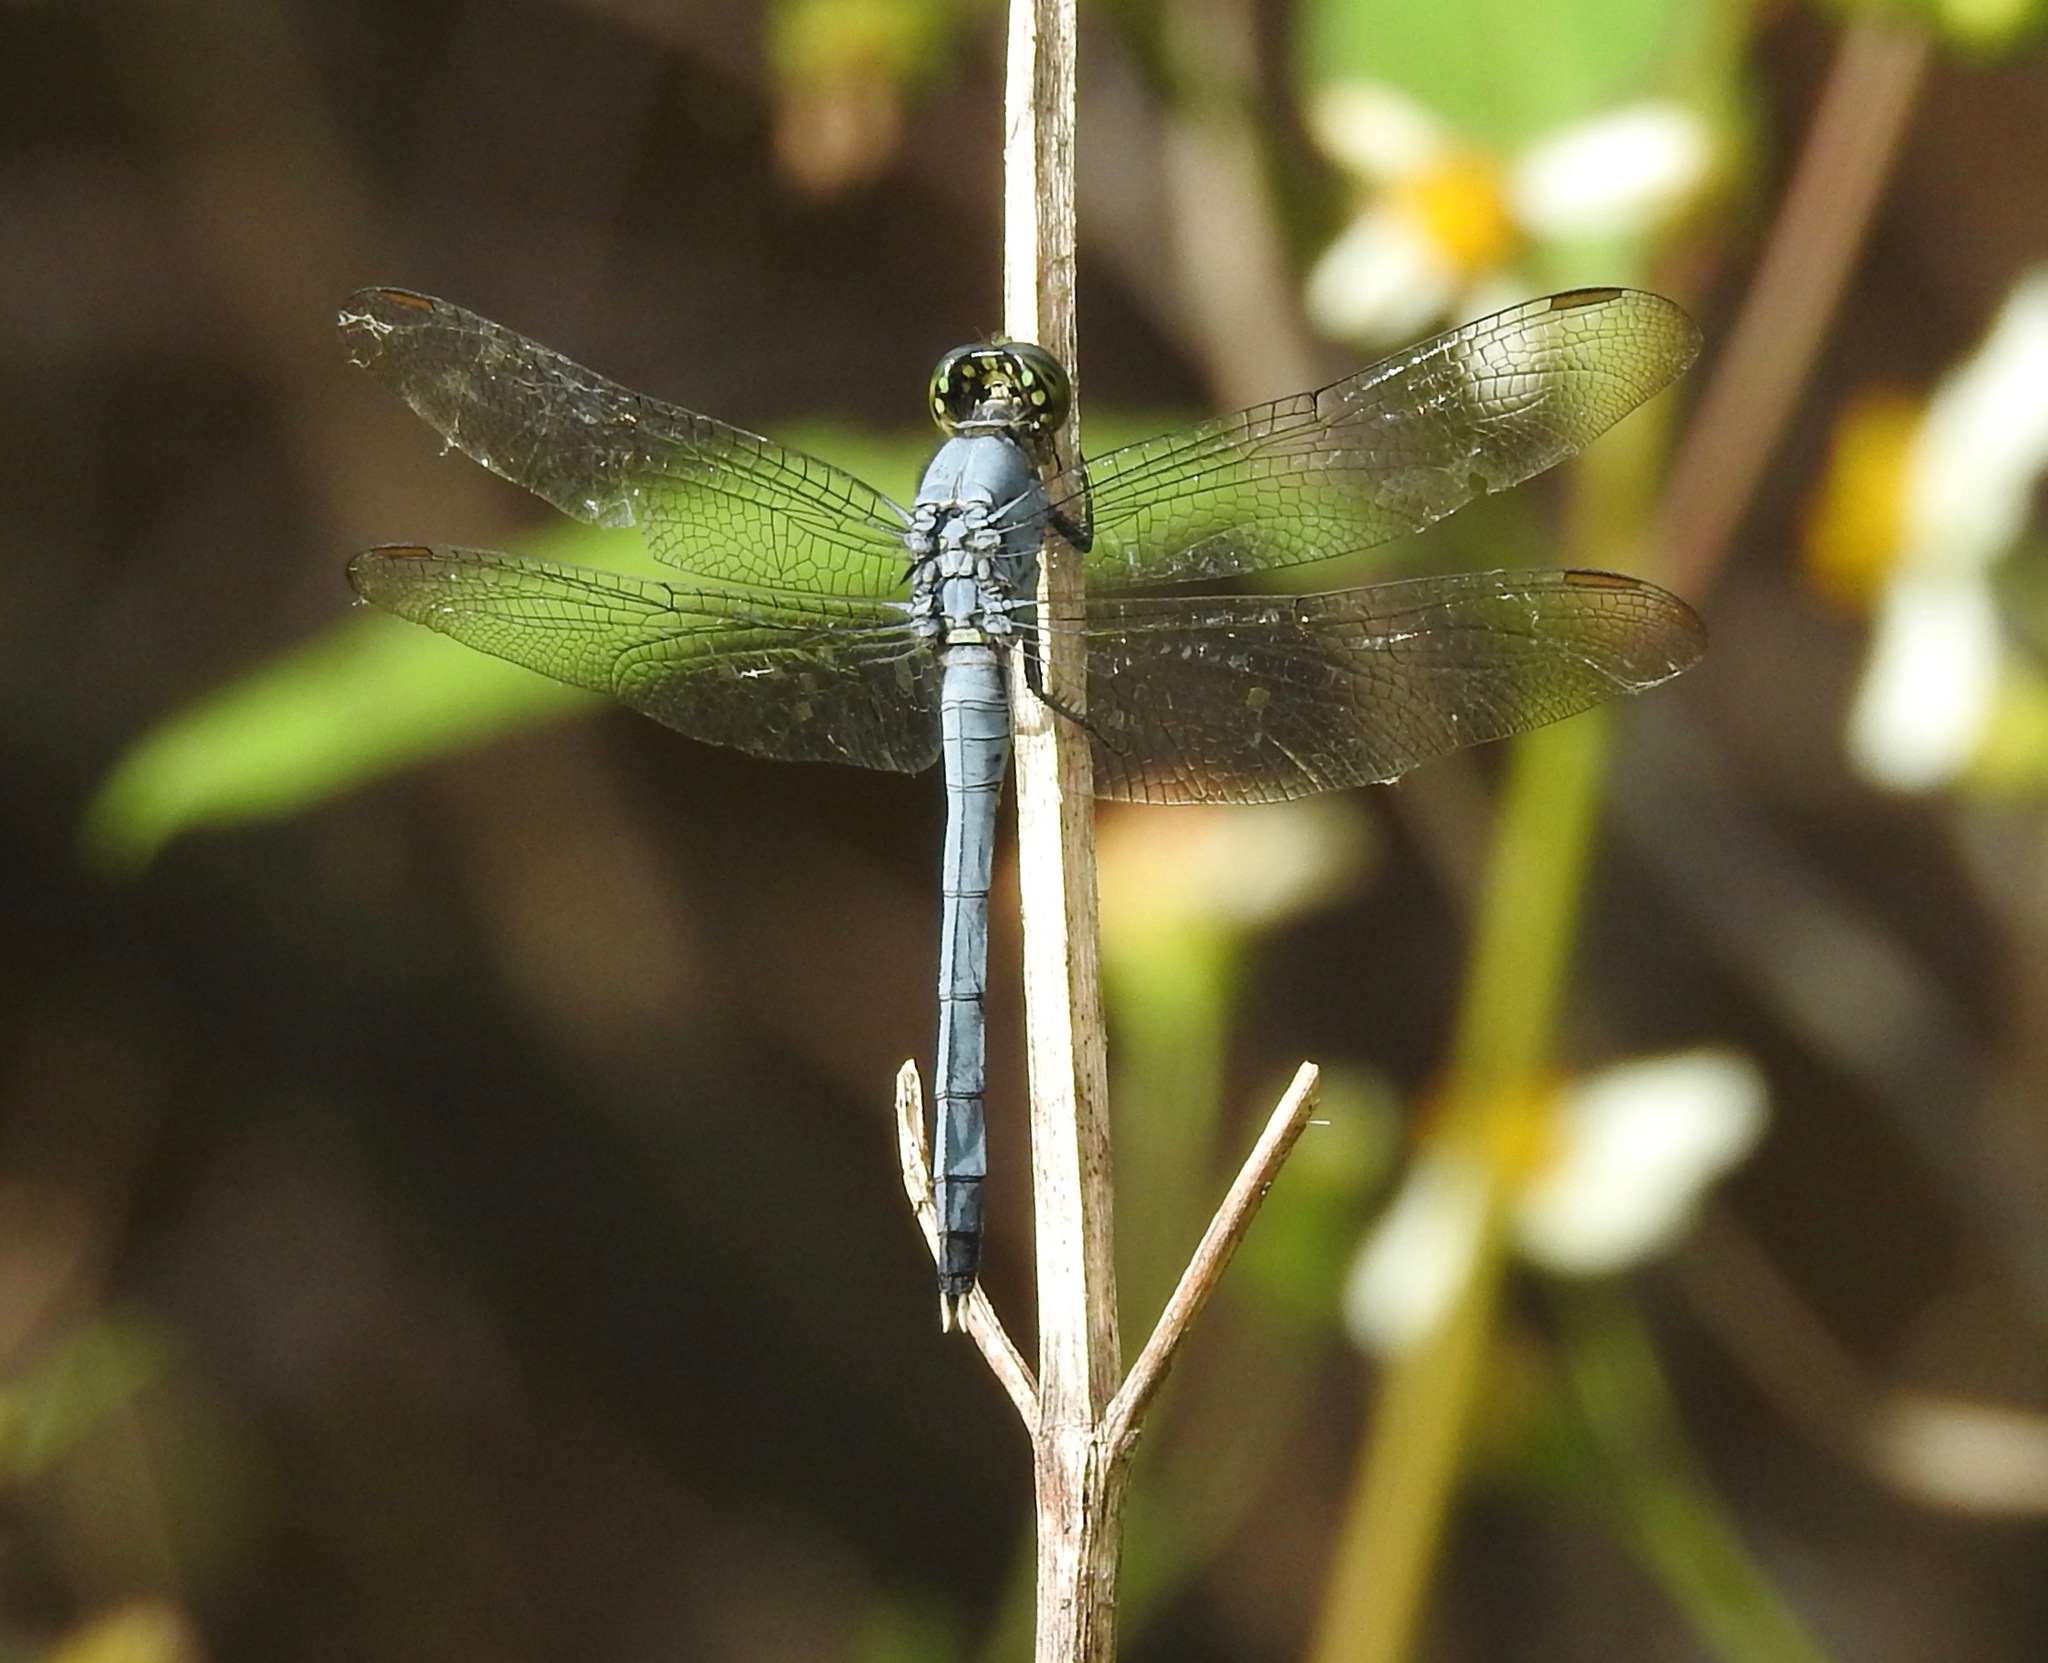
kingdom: Animalia
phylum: Arthropoda
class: Insecta
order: Odonata
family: Libellulidae
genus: Erythemis
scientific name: Erythemis simplicicollis
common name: Eastern pondhawk
